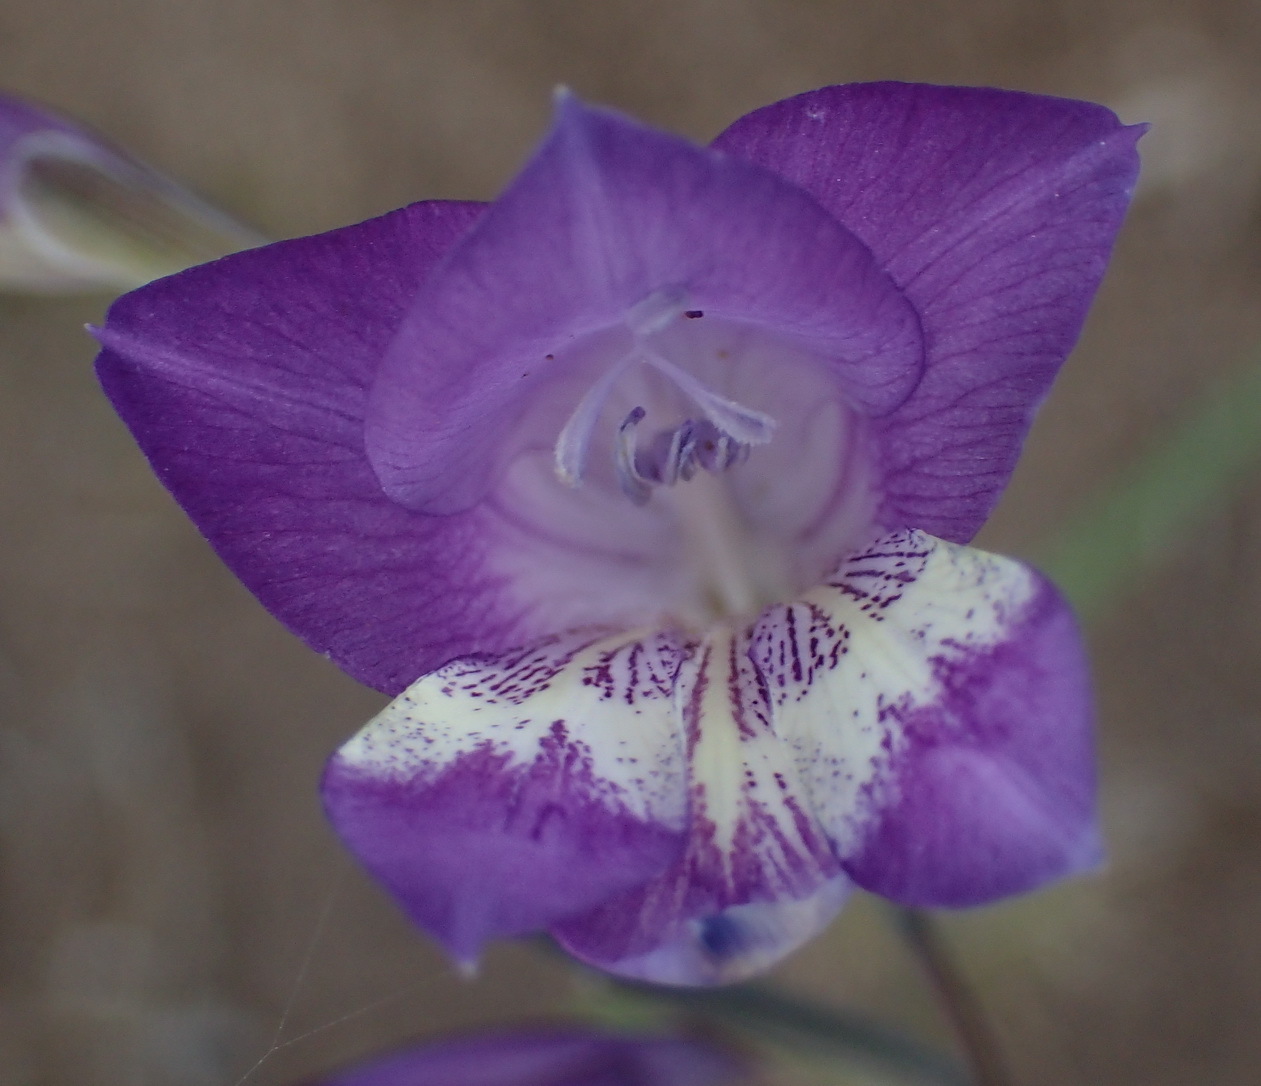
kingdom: Plantae
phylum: Tracheophyta
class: Liliopsida
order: Asparagales
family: Iridaceae
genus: Gladiolus
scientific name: Gladiolus carinatus
